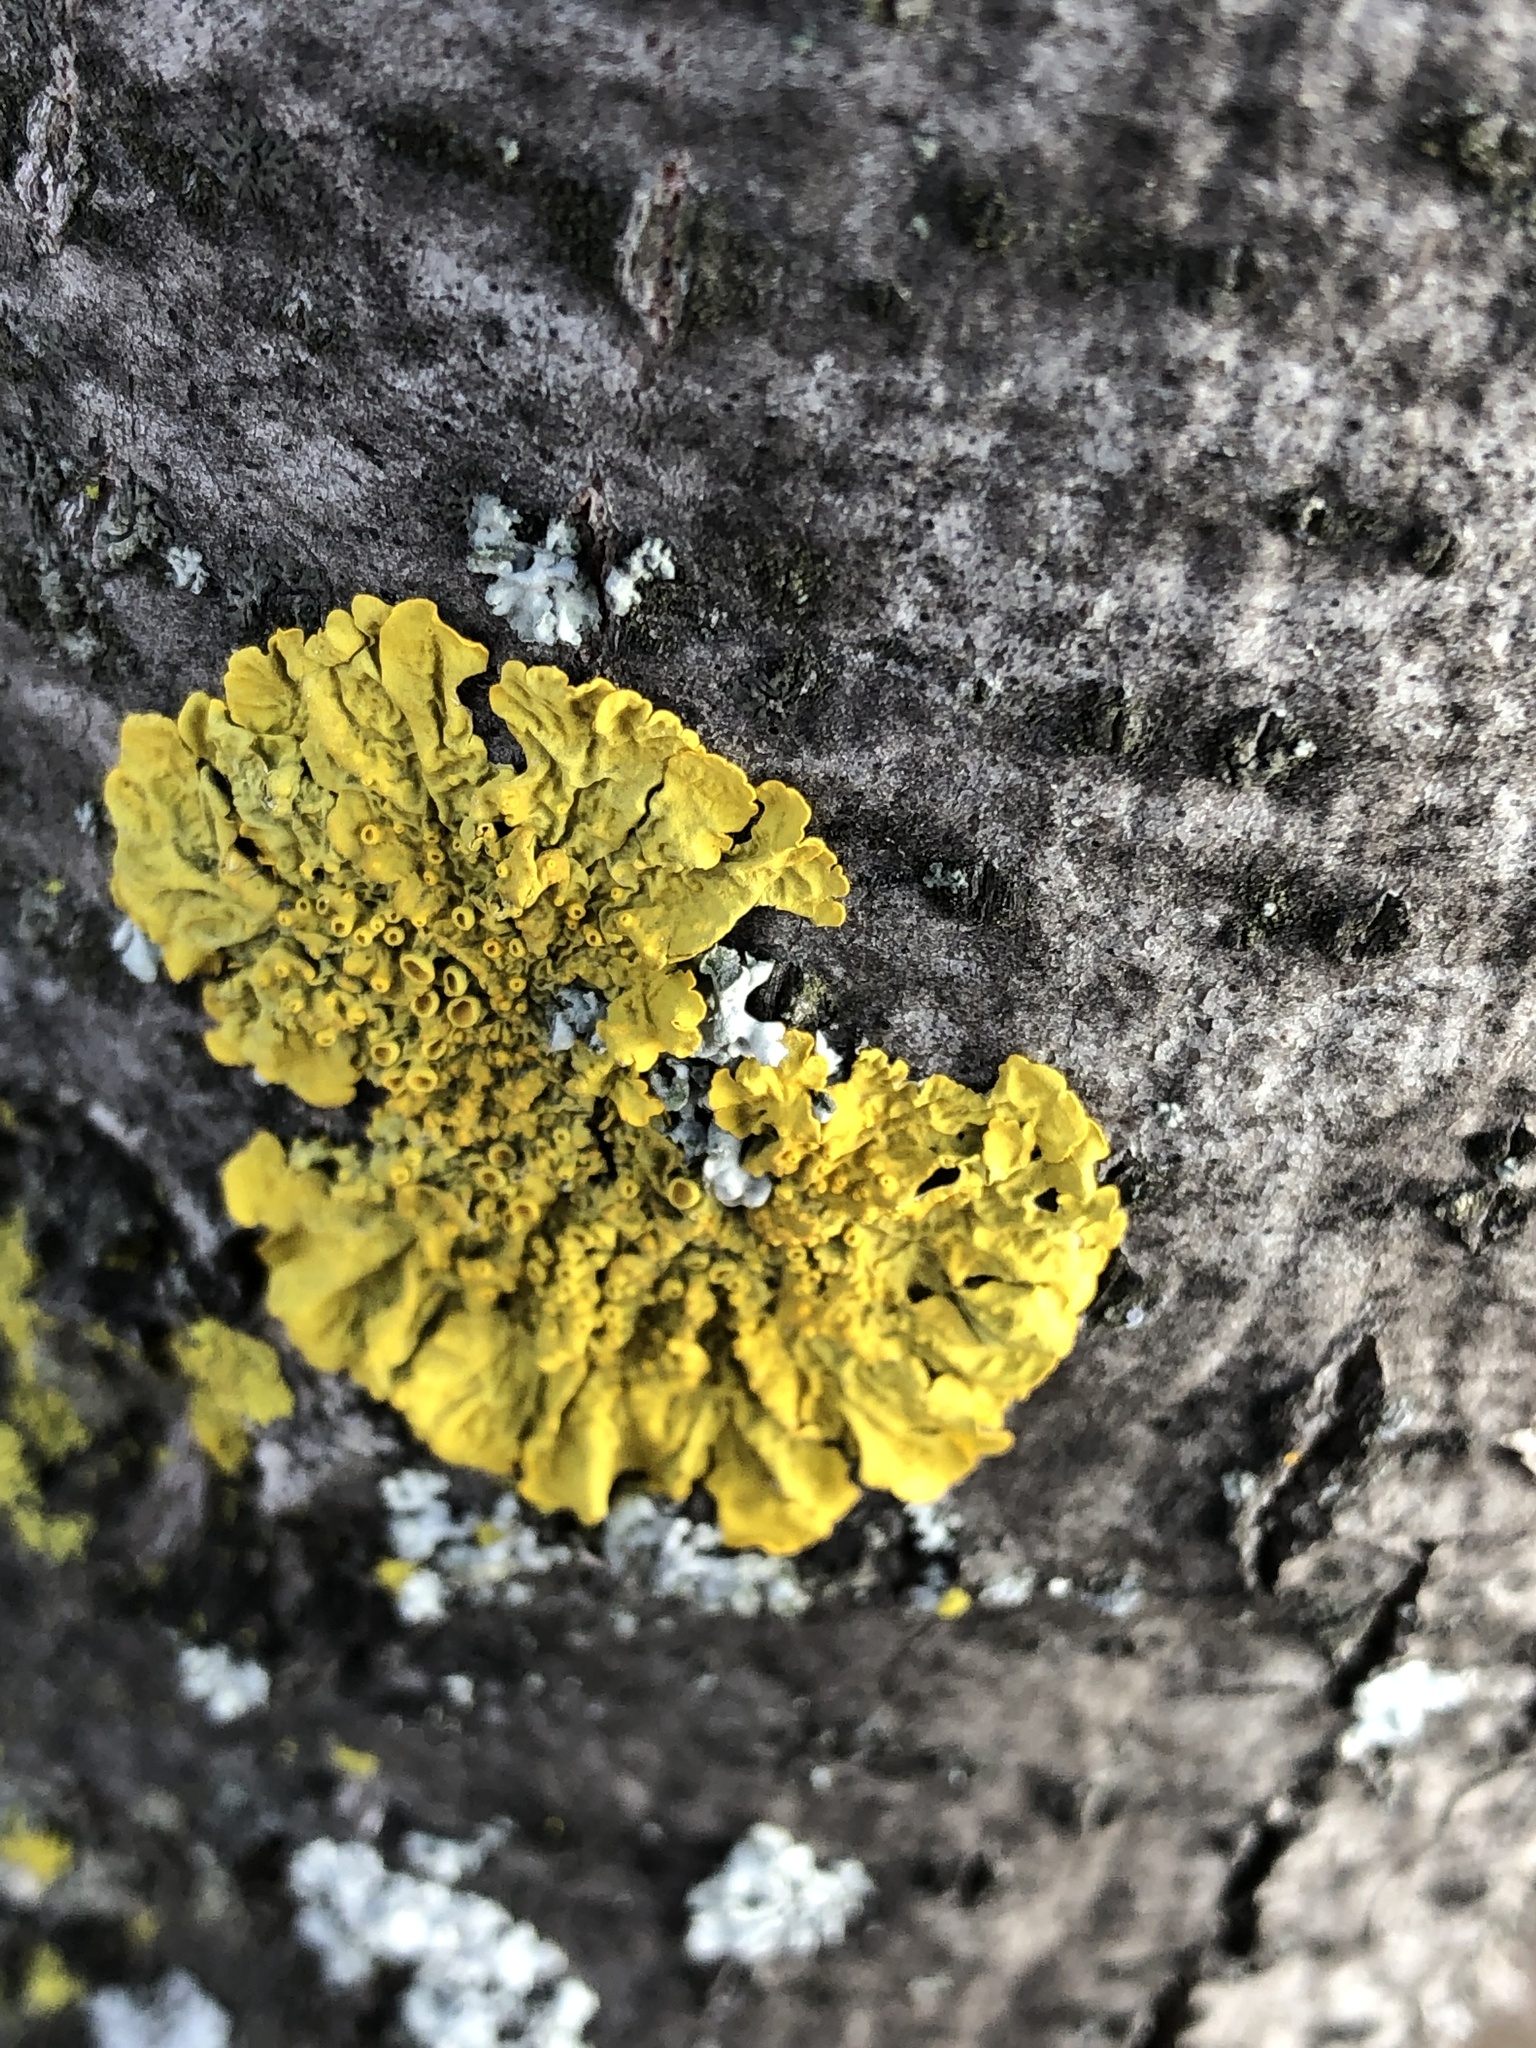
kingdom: Fungi
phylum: Ascomycota
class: Lecanoromycetes
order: Teloschistales
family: Teloschistaceae
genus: Xanthoria
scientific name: Xanthoria parietina
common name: Common orange lichen
